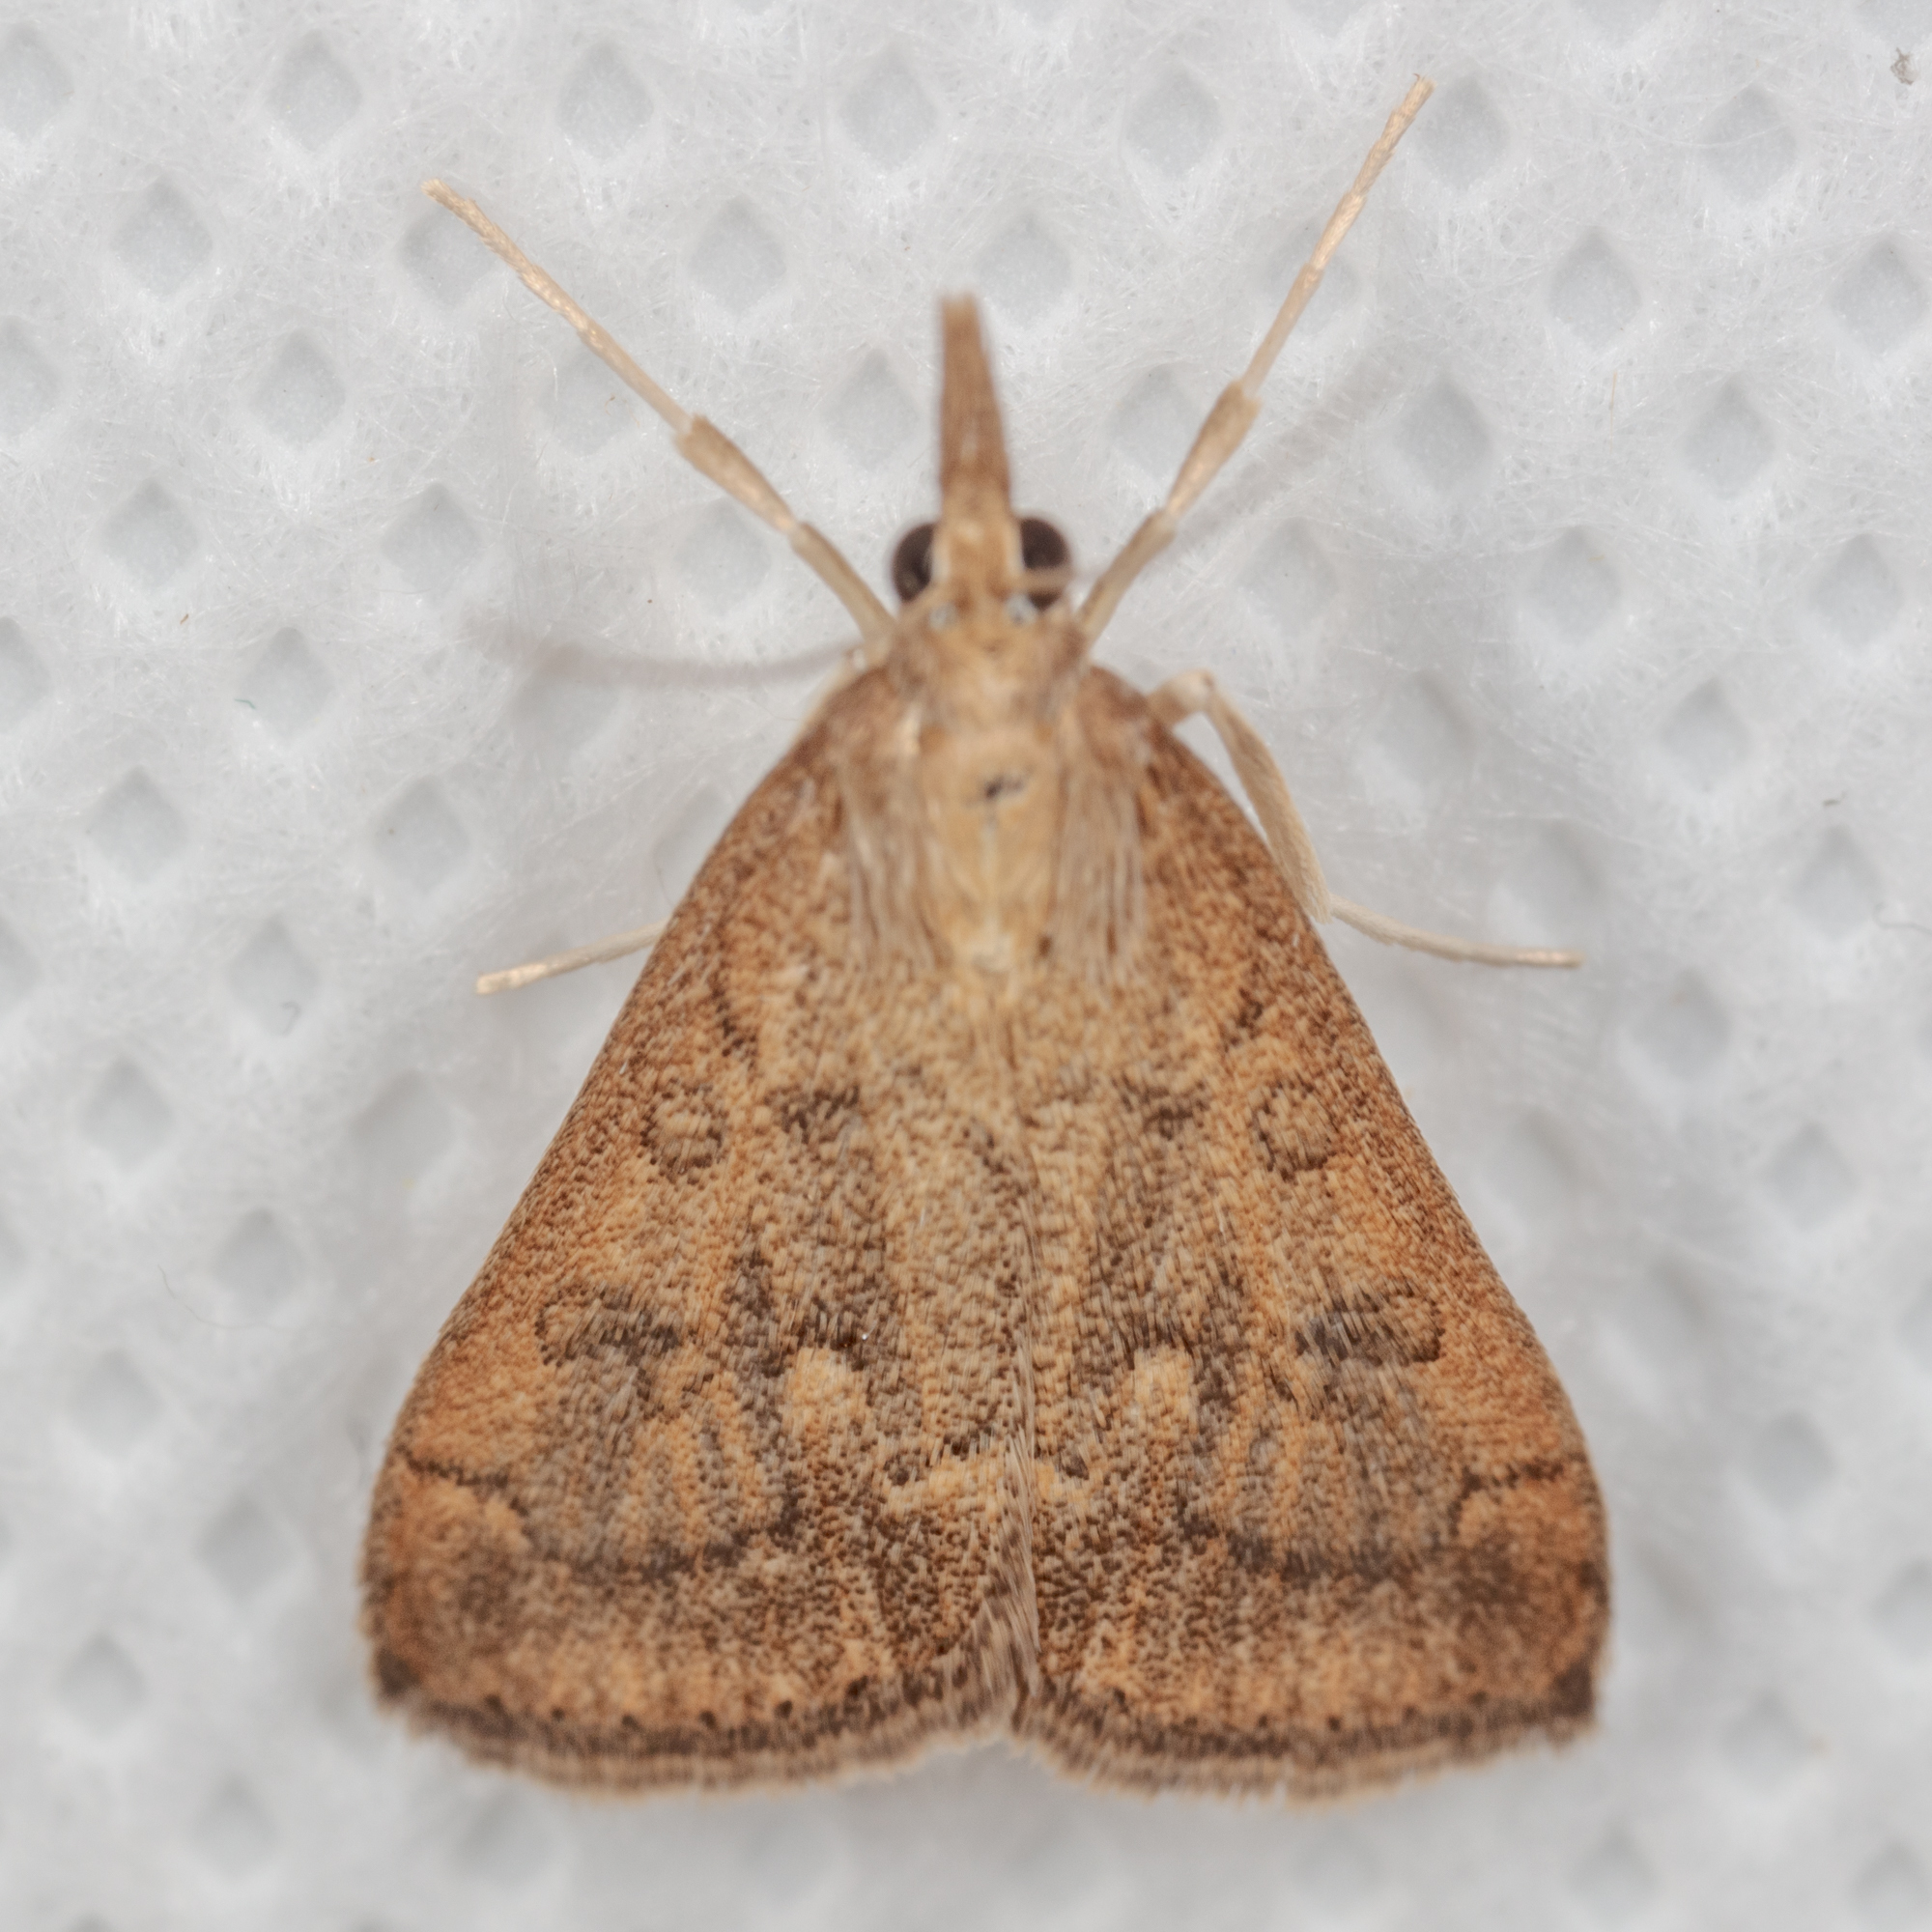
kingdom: Animalia
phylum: Arthropoda
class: Insecta
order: Lepidoptera
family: Crambidae
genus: Udea
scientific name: Udea rubigalis
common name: Celery leaftier moth
